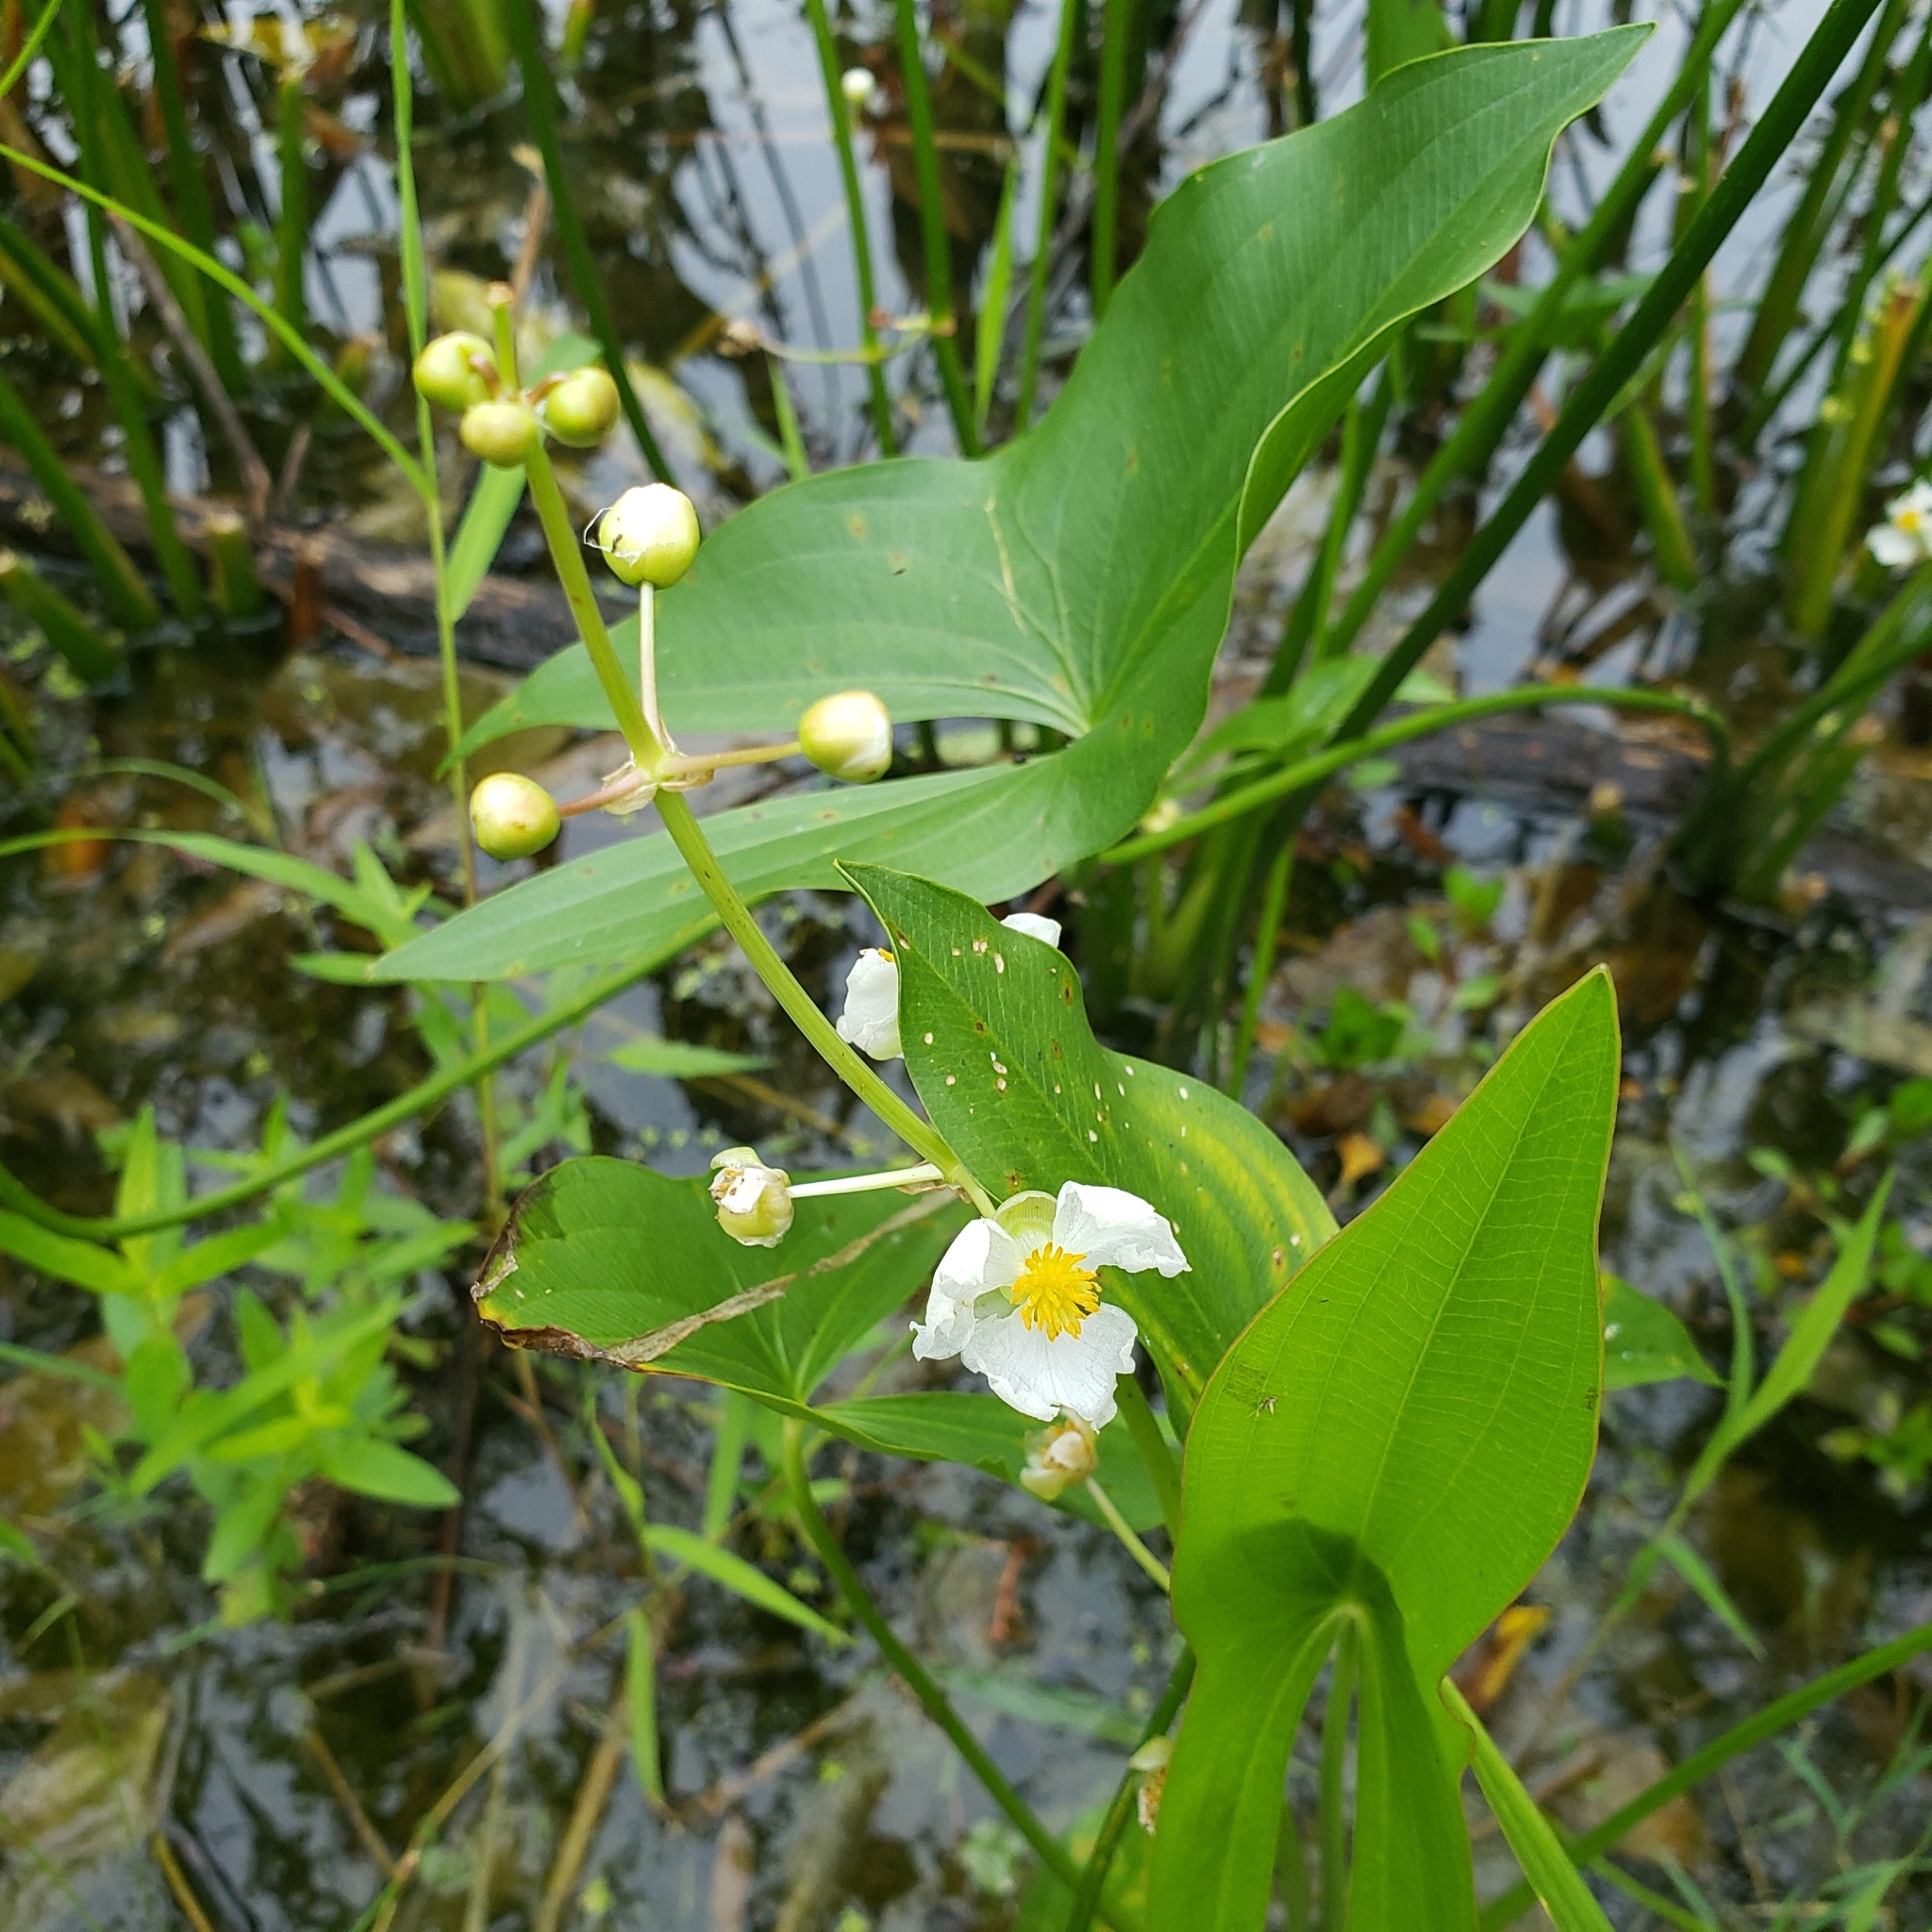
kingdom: Plantae
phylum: Tracheophyta
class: Liliopsida
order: Alismatales
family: Alismataceae
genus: Sagittaria
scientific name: Sagittaria latifolia
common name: Duck-potato
